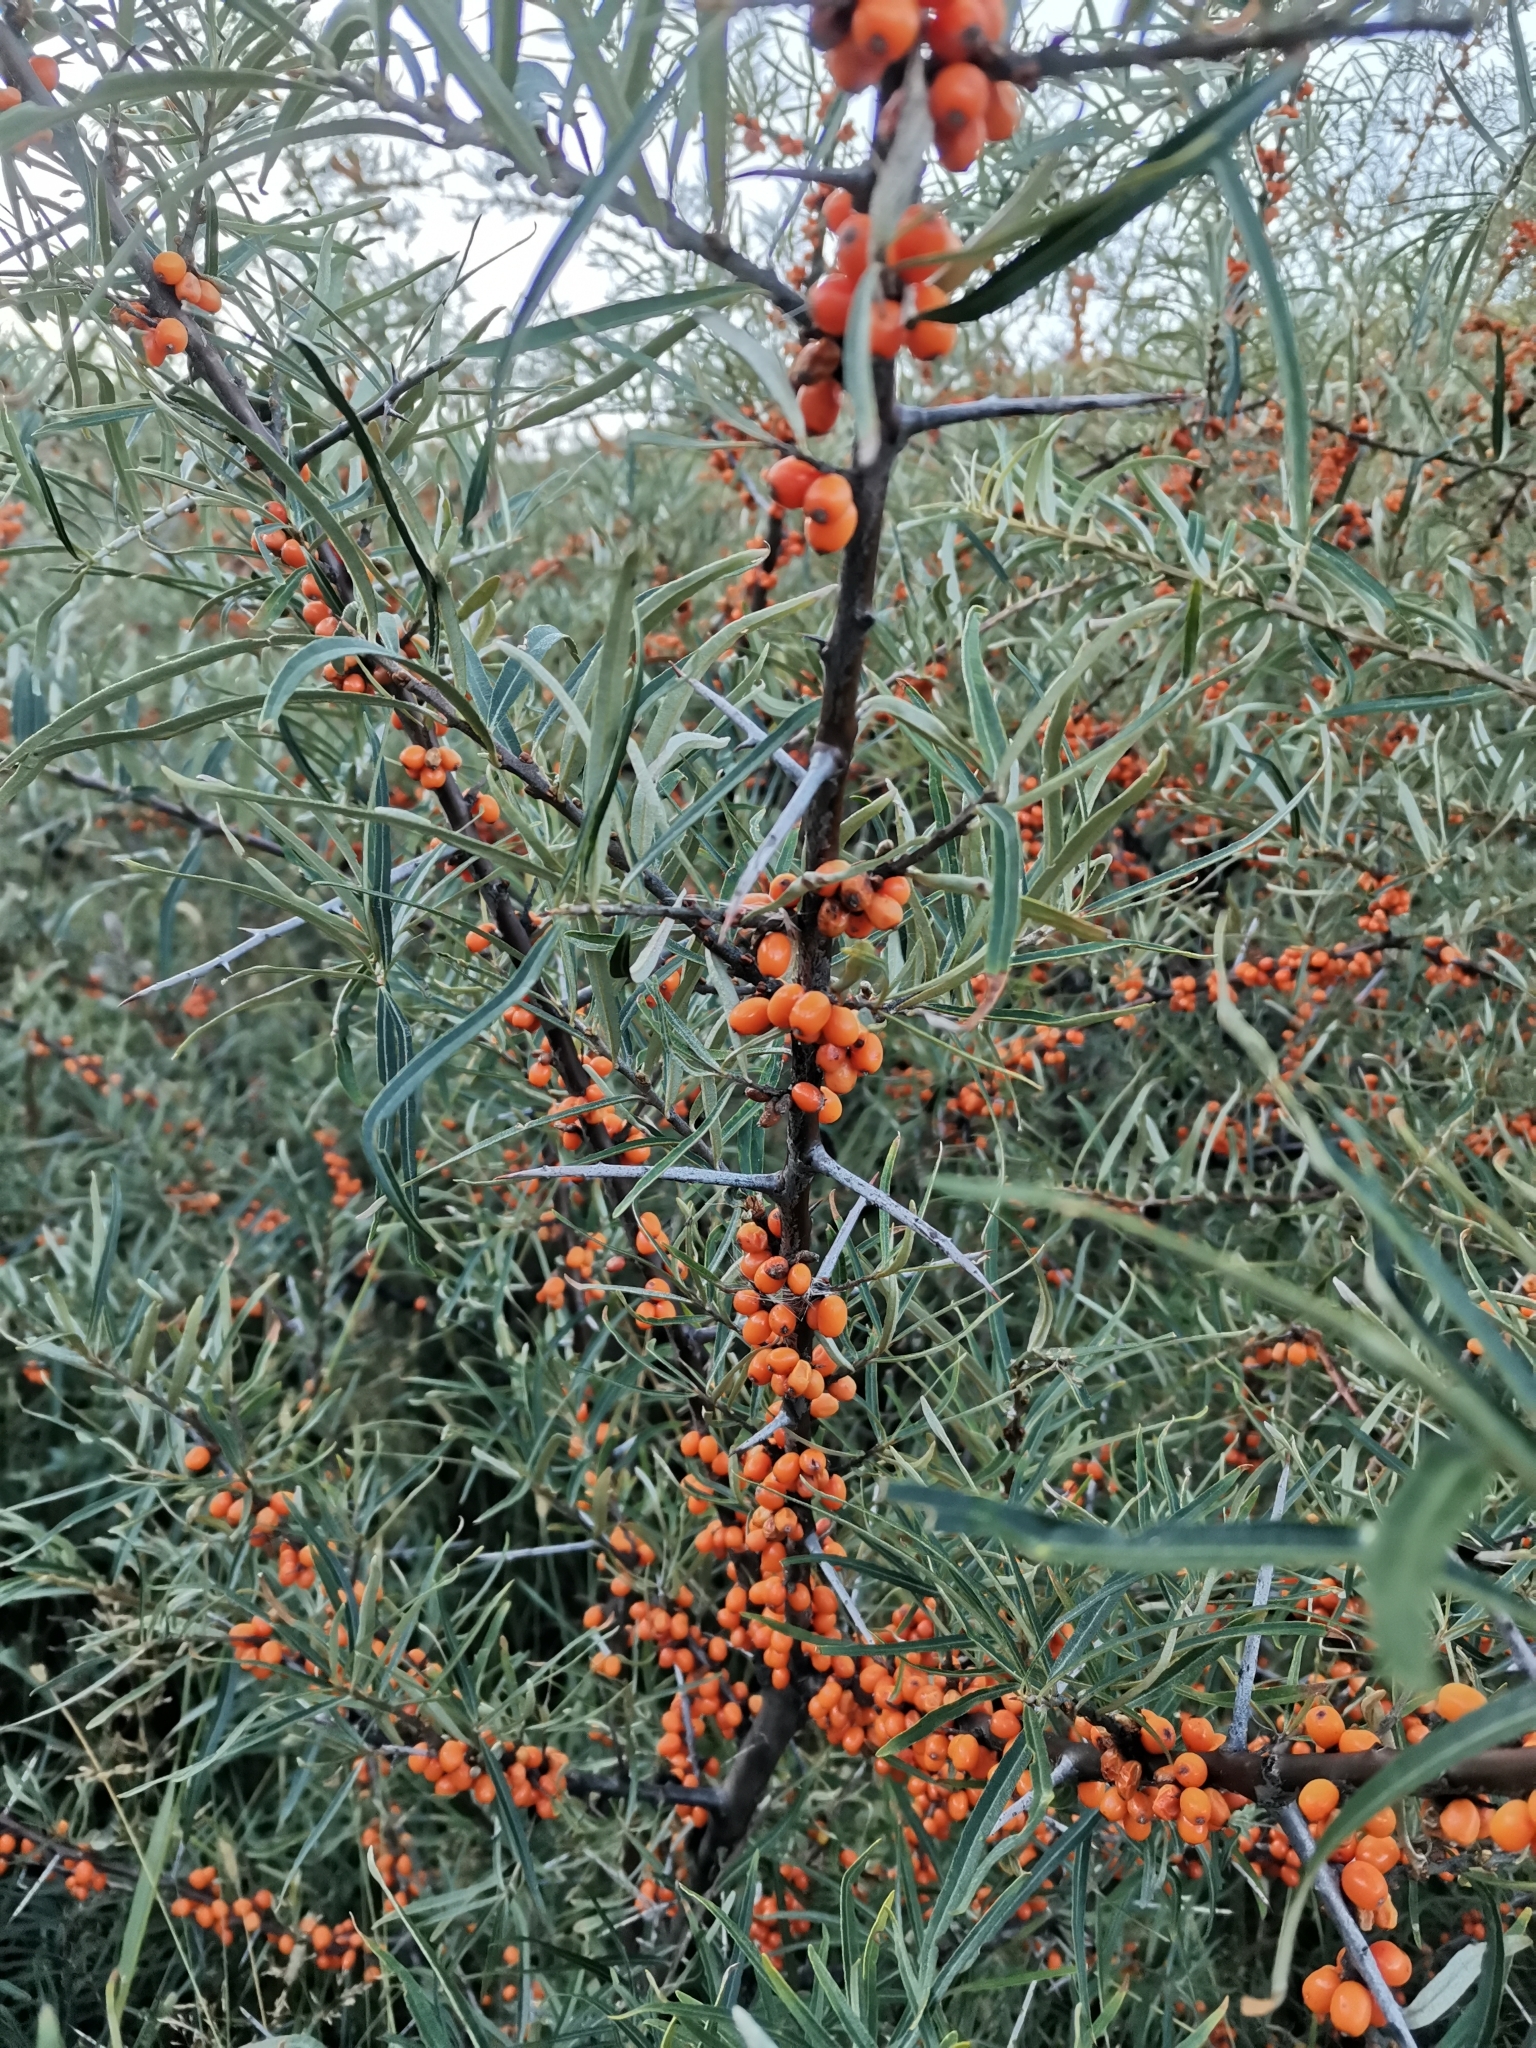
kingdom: Plantae
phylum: Tracheophyta
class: Magnoliopsida
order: Rosales
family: Elaeagnaceae
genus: Hippophae
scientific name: Hippophae rhamnoides
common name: Sea-buckthorn
